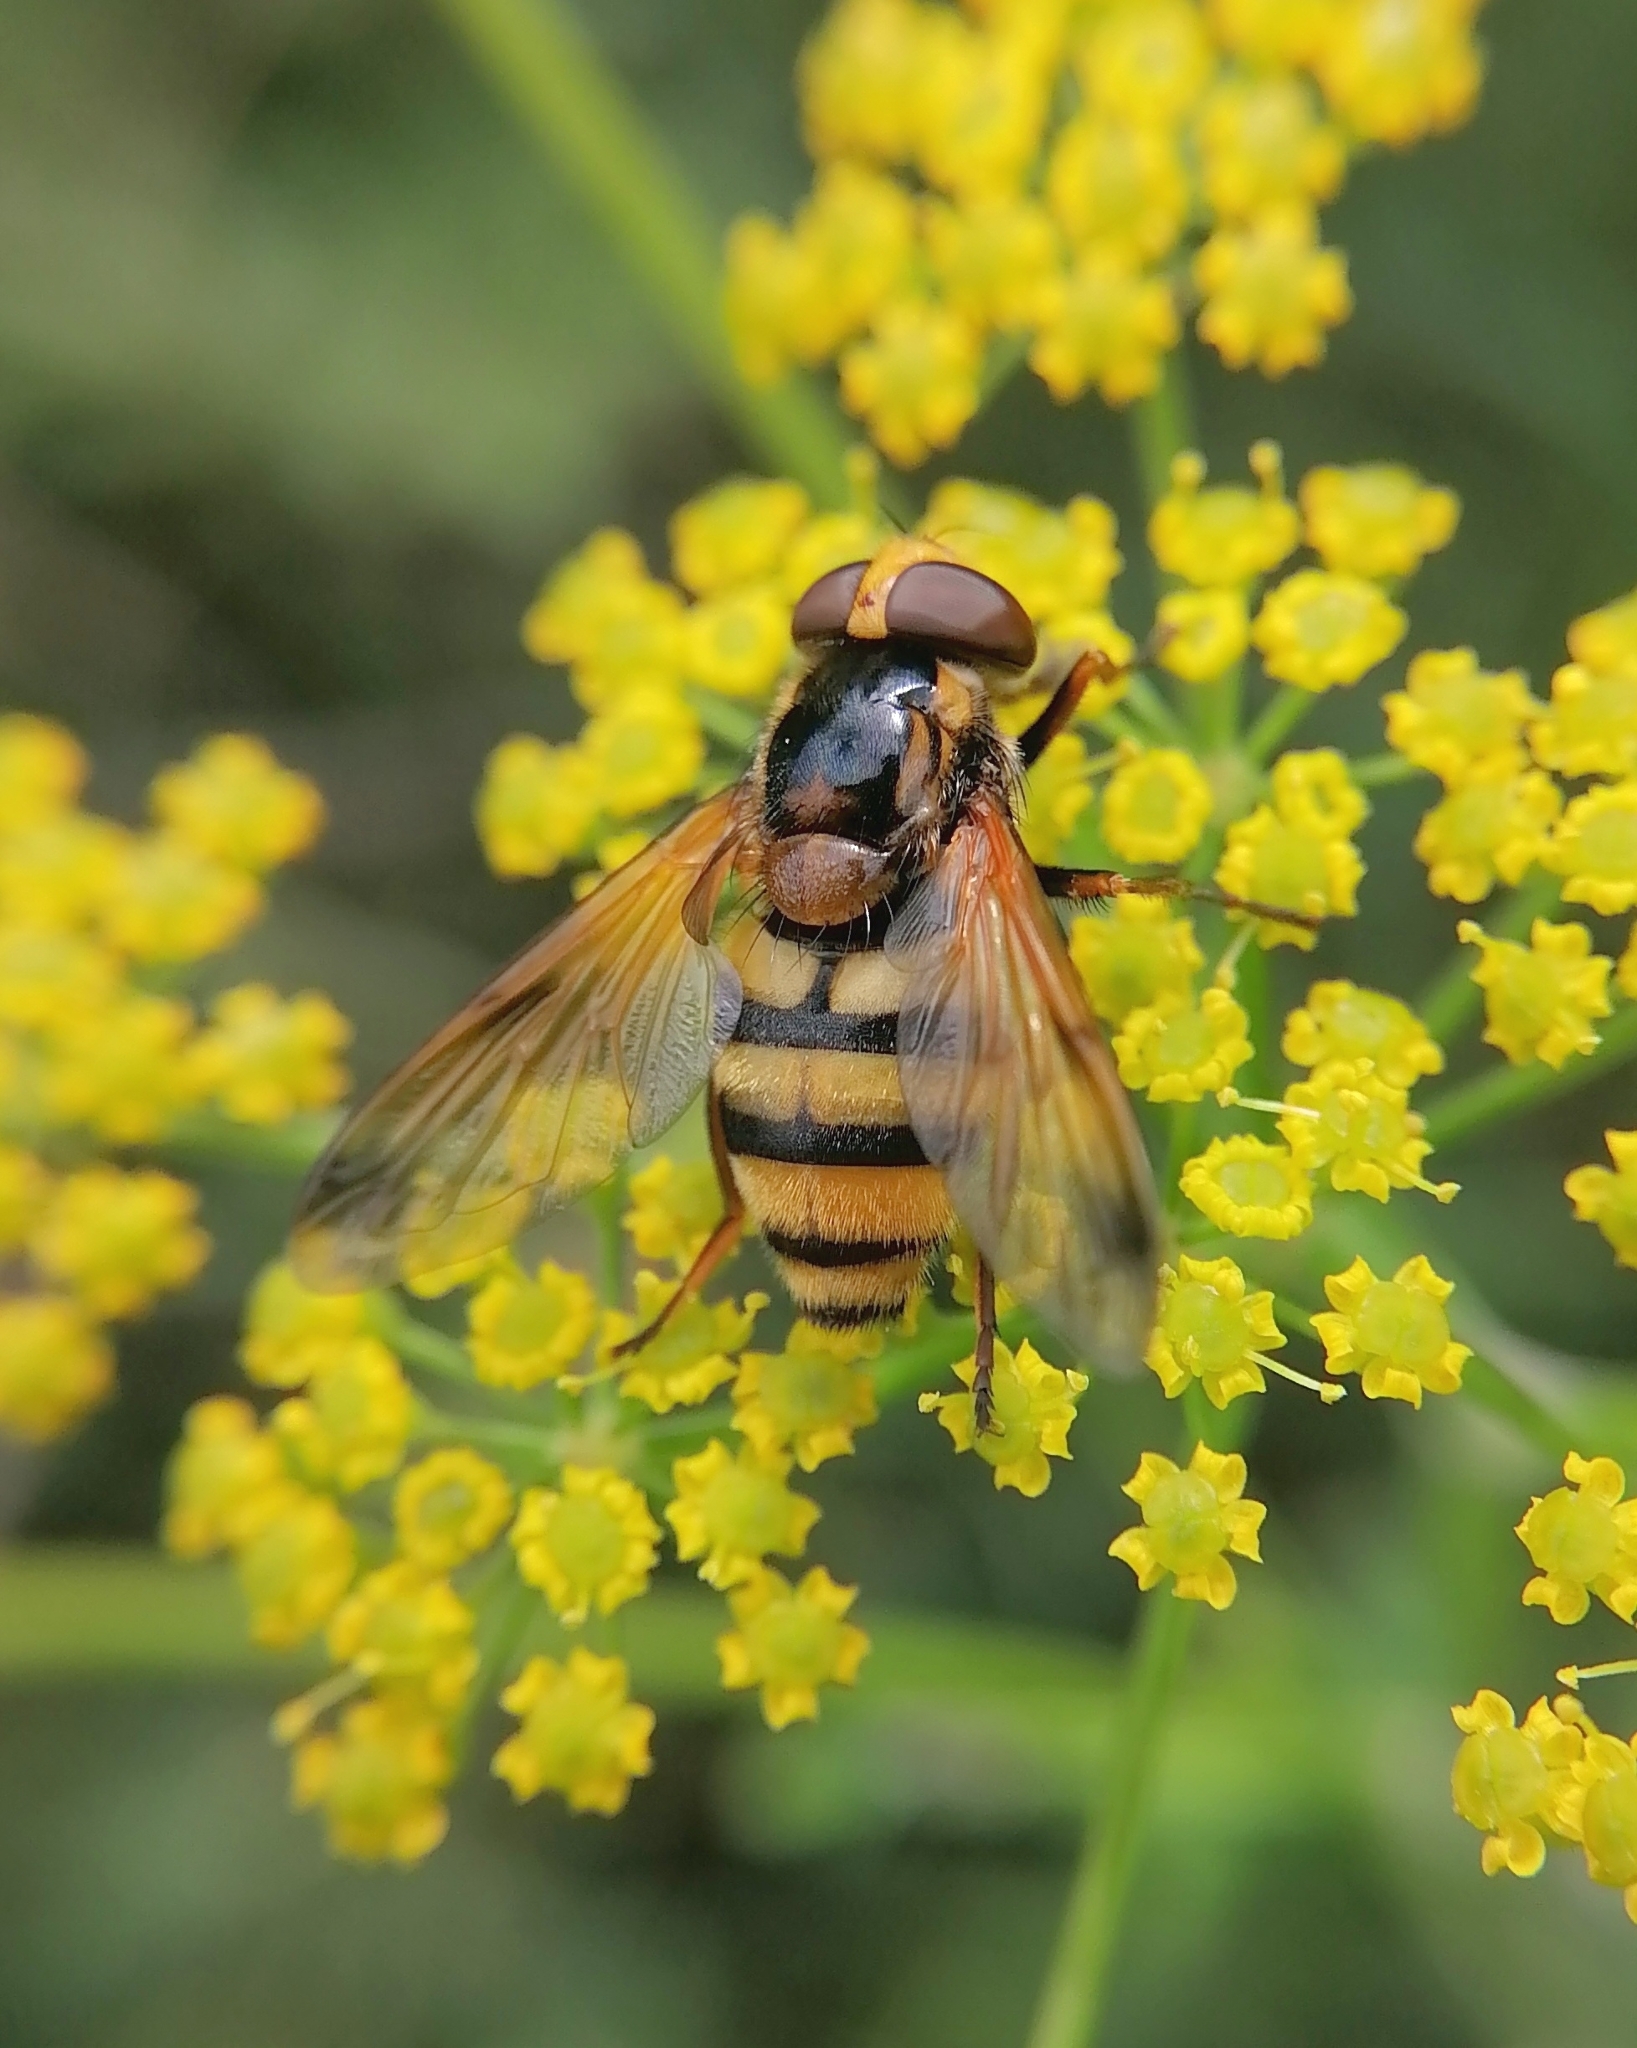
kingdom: Animalia
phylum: Arthropoda
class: Insecta
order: Diptera
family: Syrphidae
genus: Volucella
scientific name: Volucella inanis
